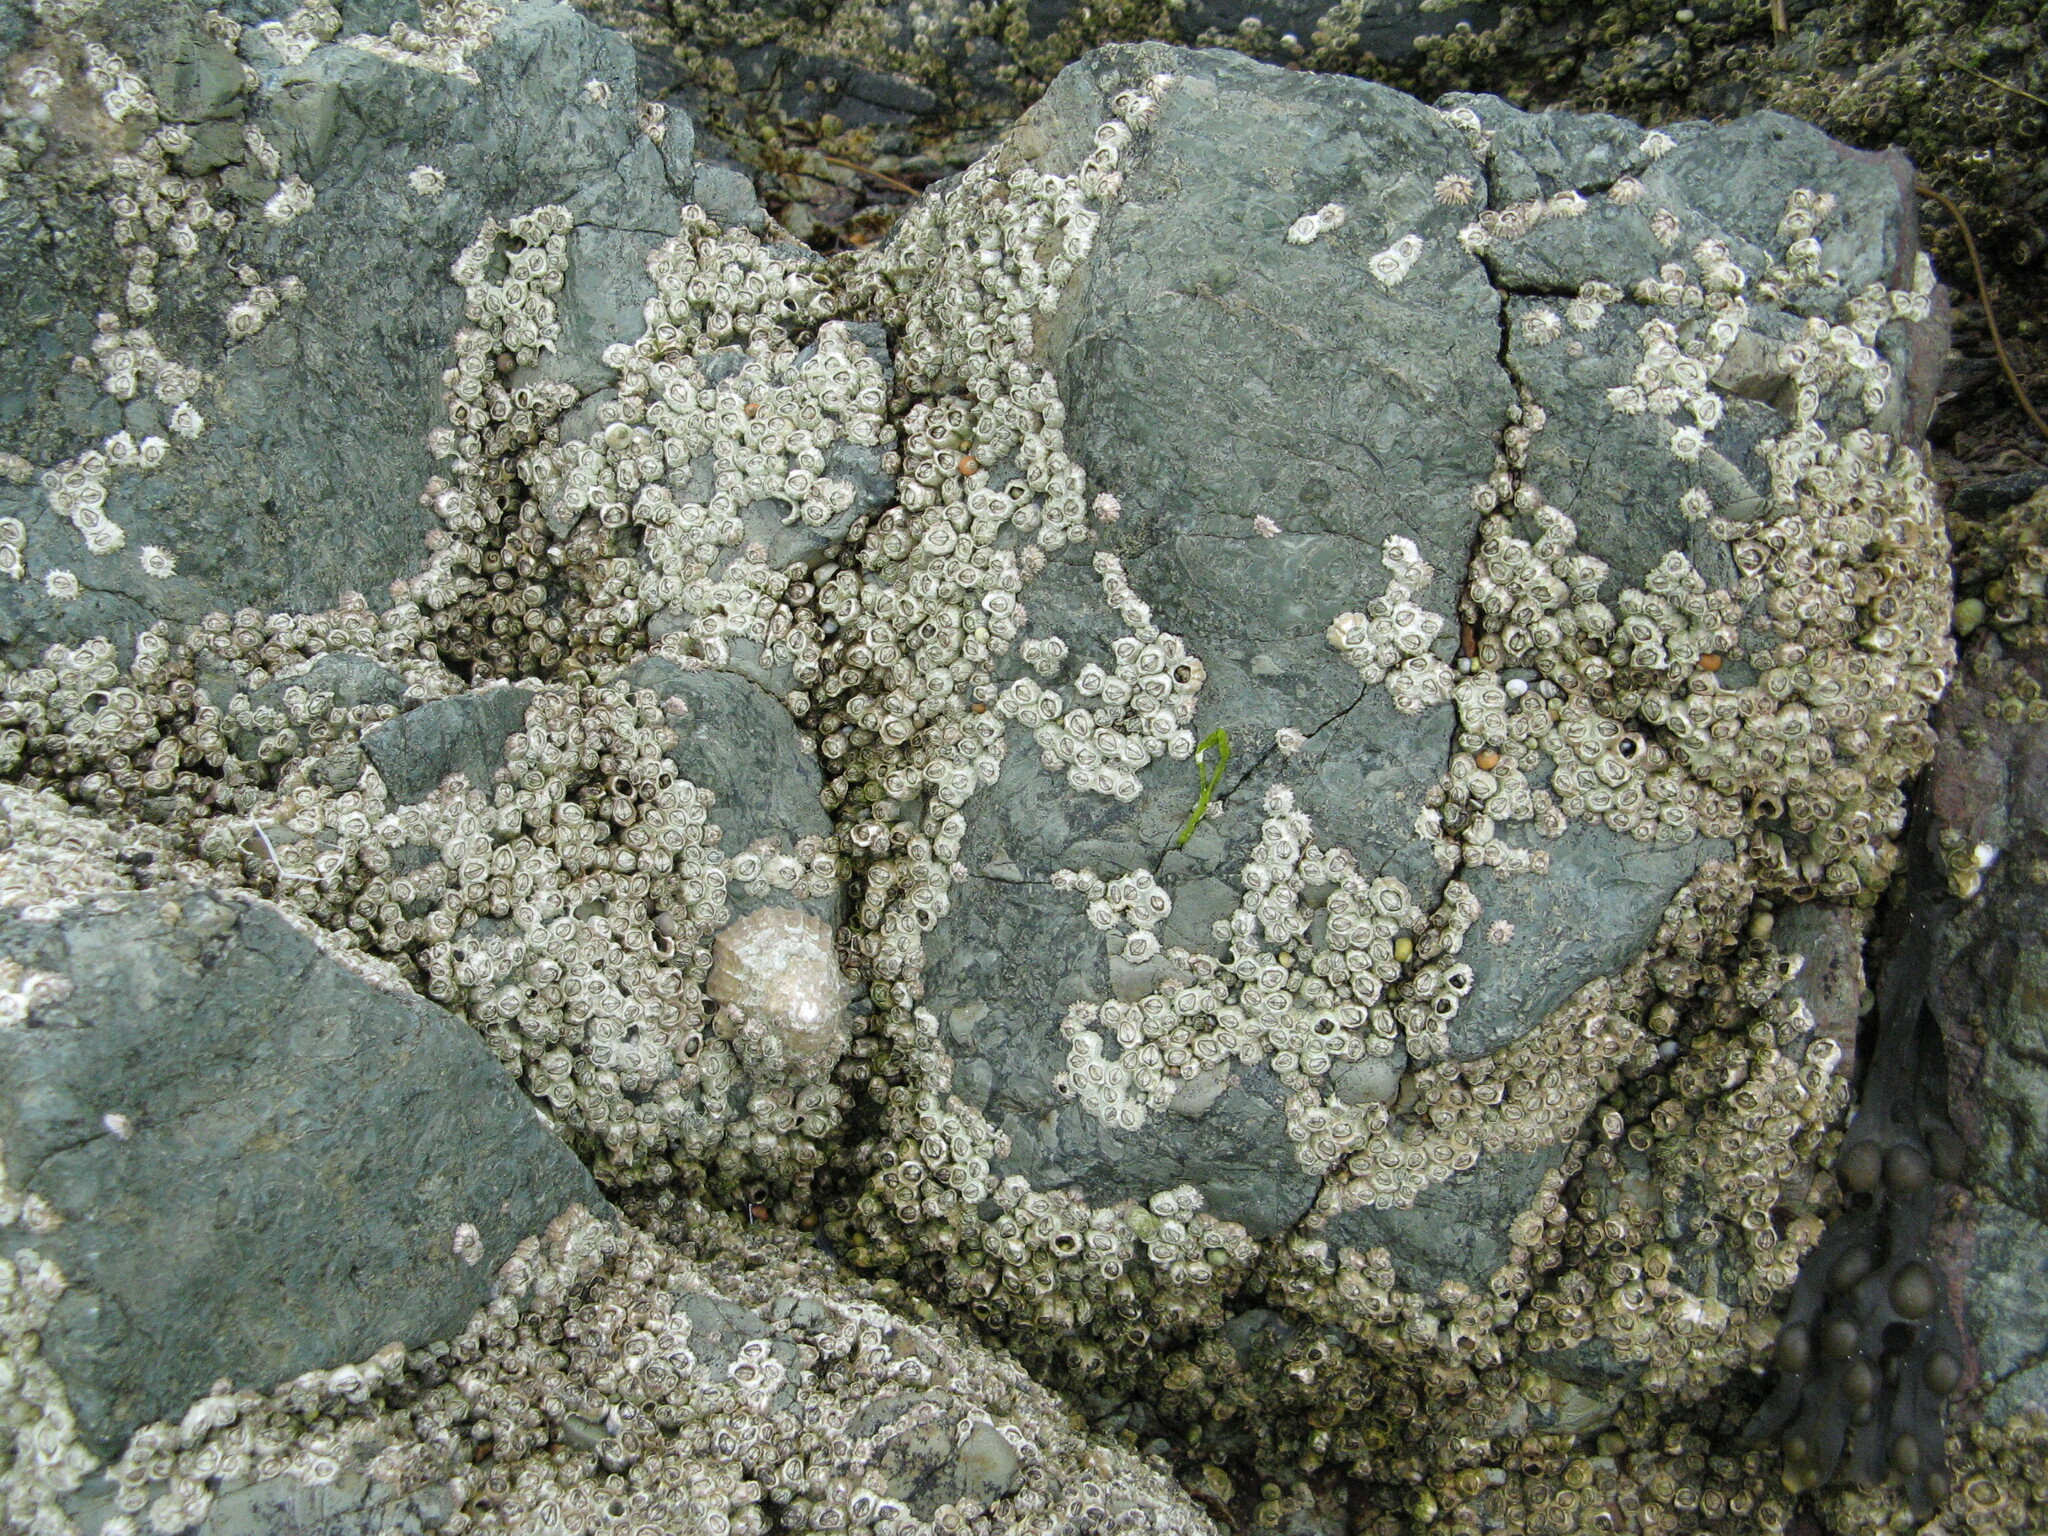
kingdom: Animalia
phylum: Arthropoda
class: Maxillopoda
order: Sessilia
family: Archaeobalanidae
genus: Semibalanus
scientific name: Semibalanus balanoides
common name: Acorn barnacle
